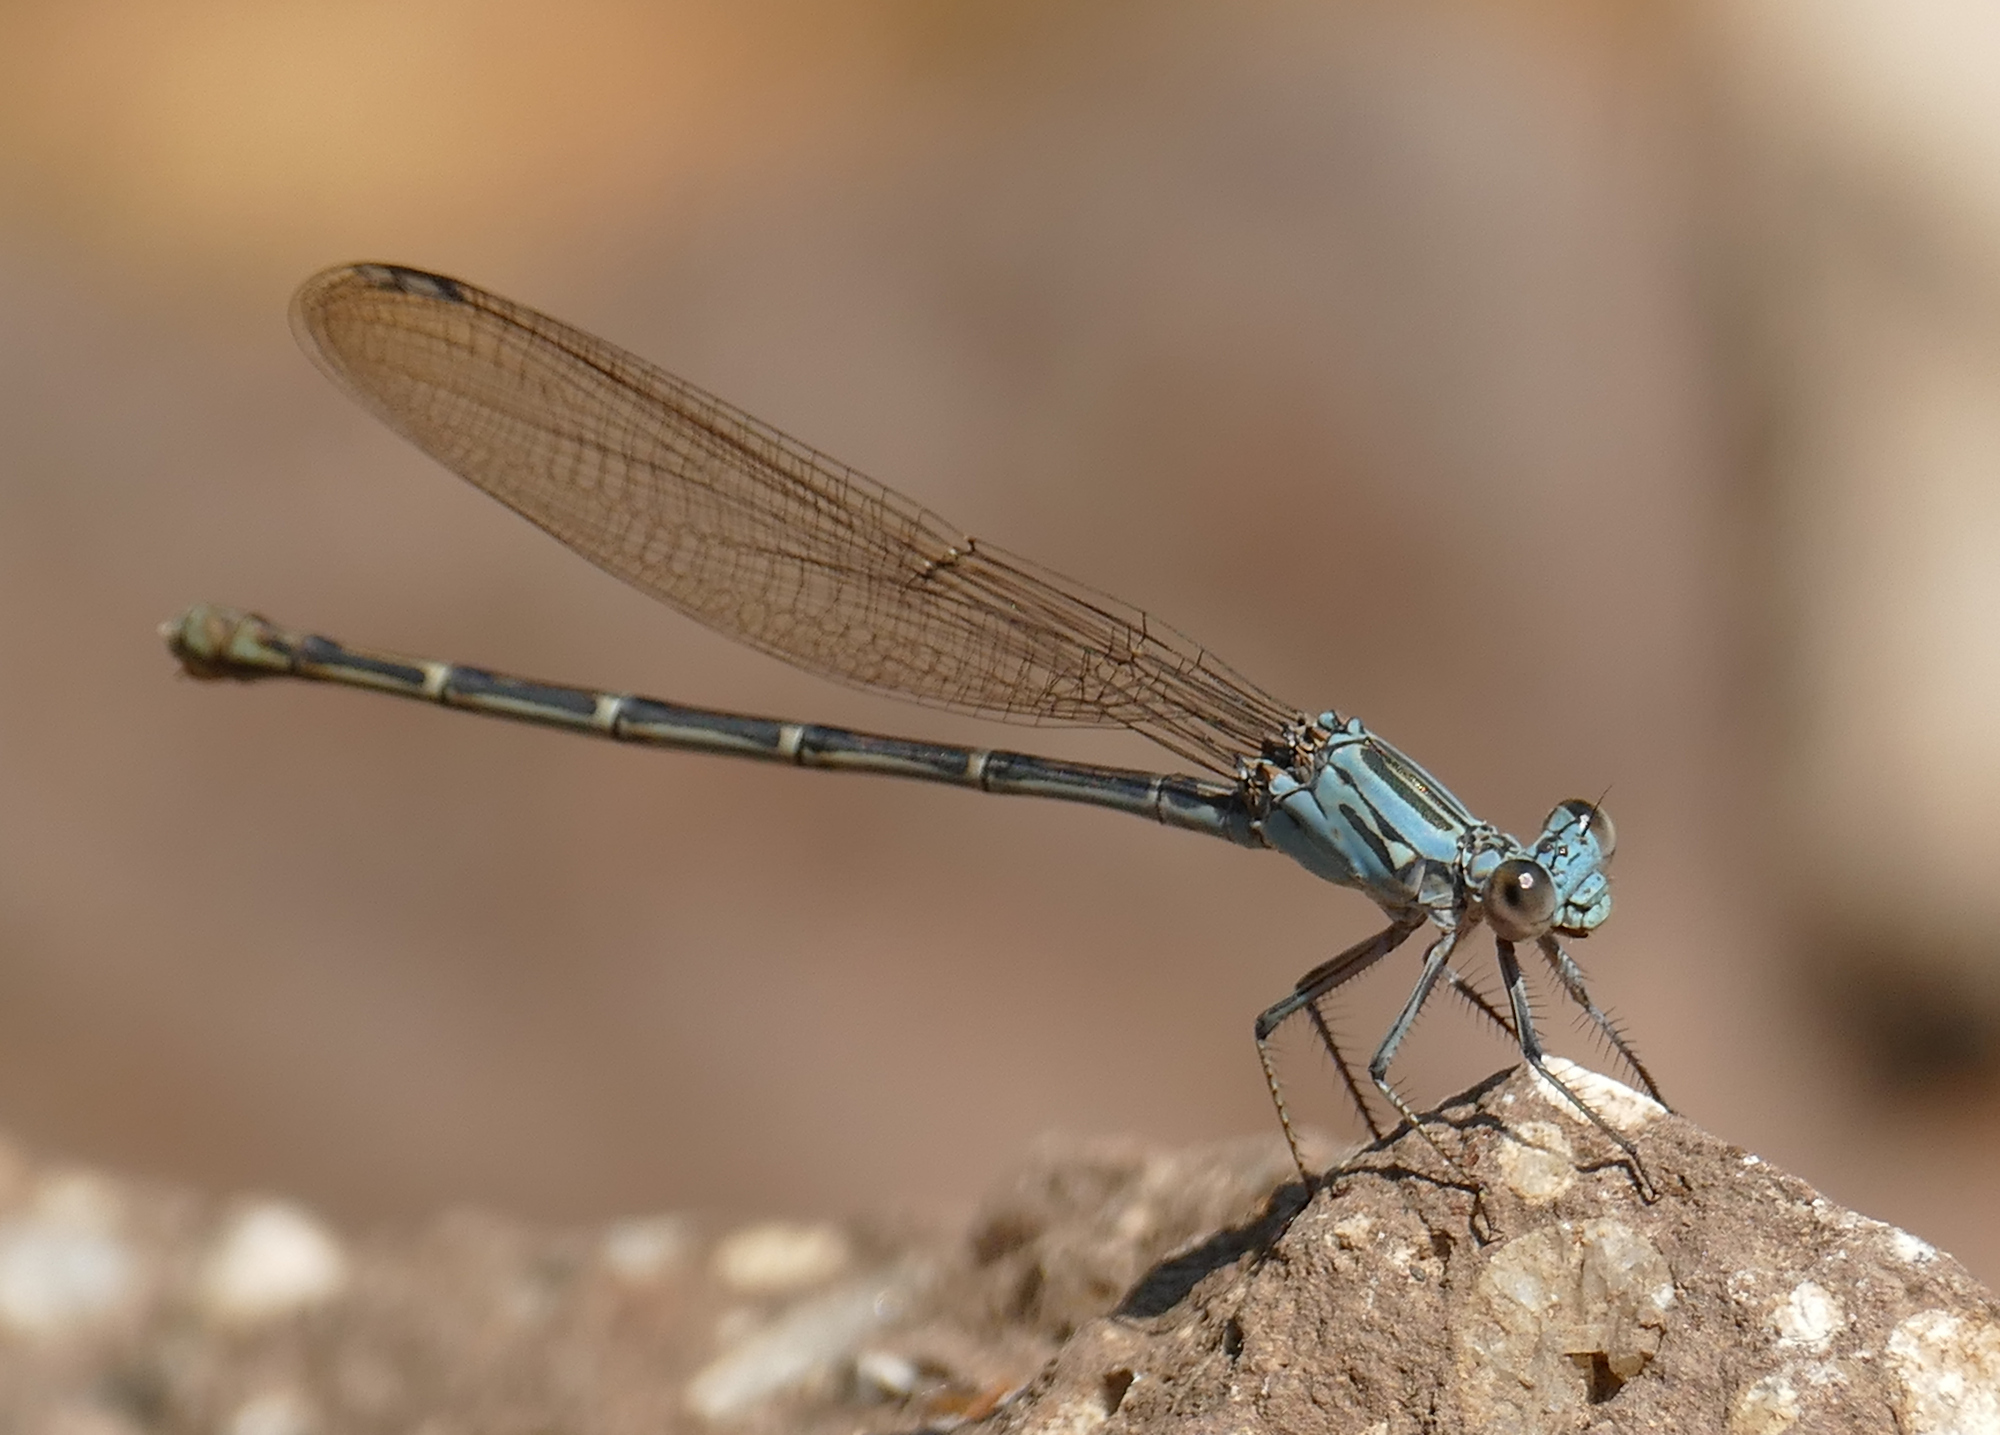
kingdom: Animalia
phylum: Arthropoda
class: Insecta
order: Odonata
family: Coenagrionidae
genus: Argia
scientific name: Argia lugens
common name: Sooty dancer
